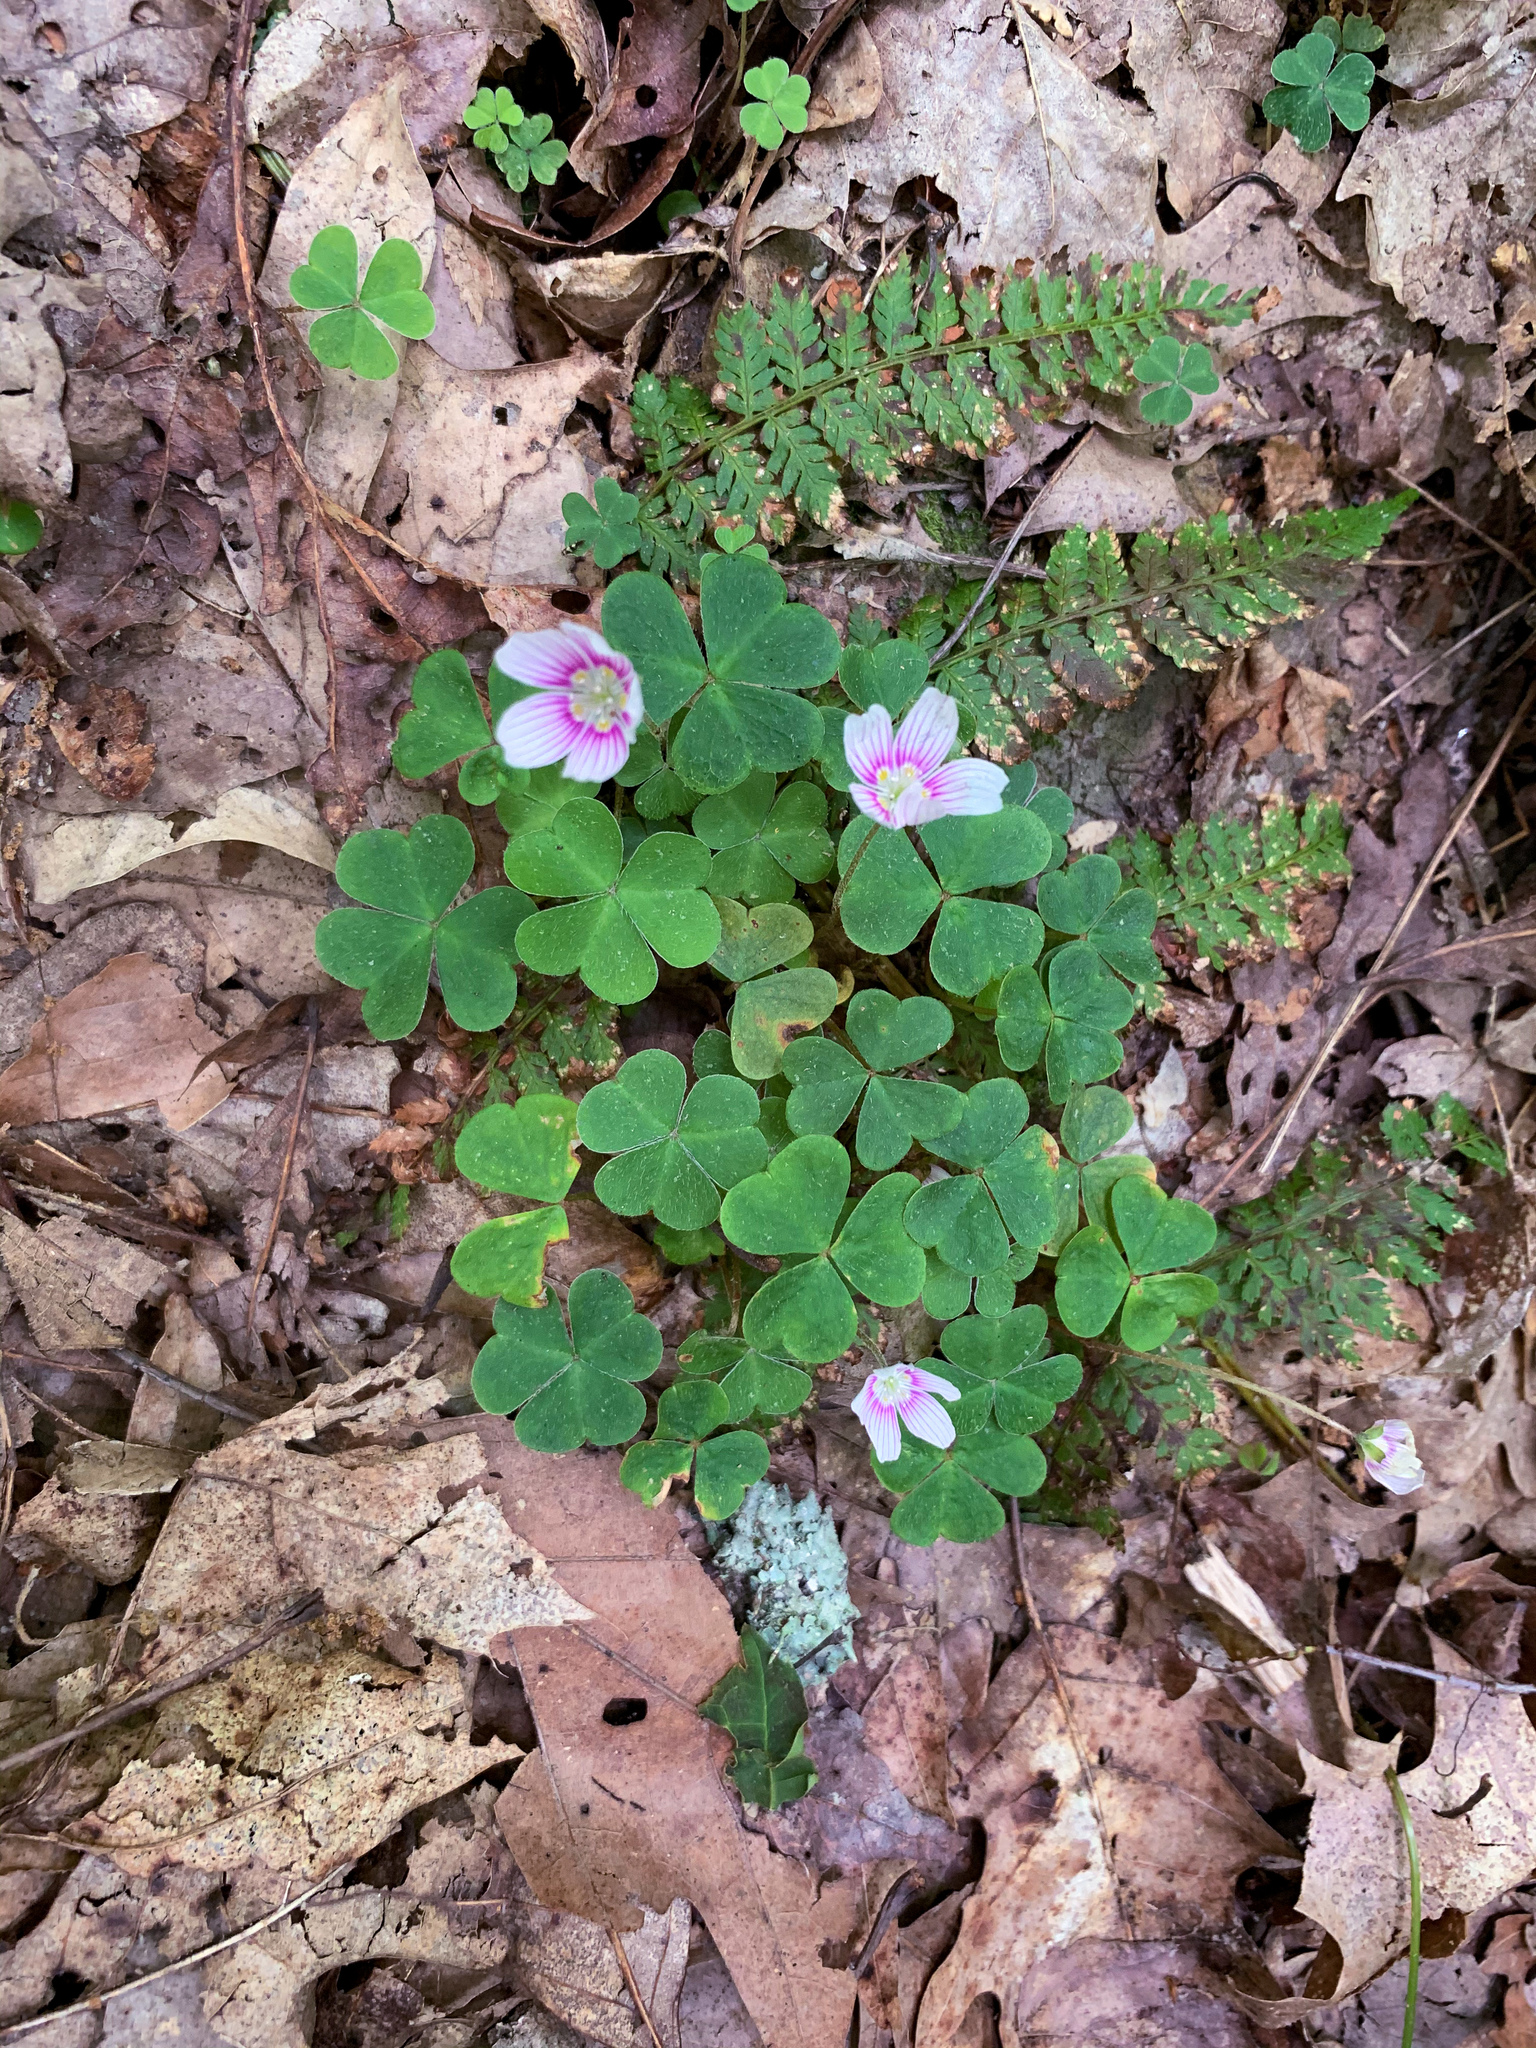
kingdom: Plantae
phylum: Tracheophyta
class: Magnoliopsida
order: Oxalidales
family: Oxalidaceae
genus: Oxalis
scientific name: Oxalis montana
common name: American wood-sorrel
